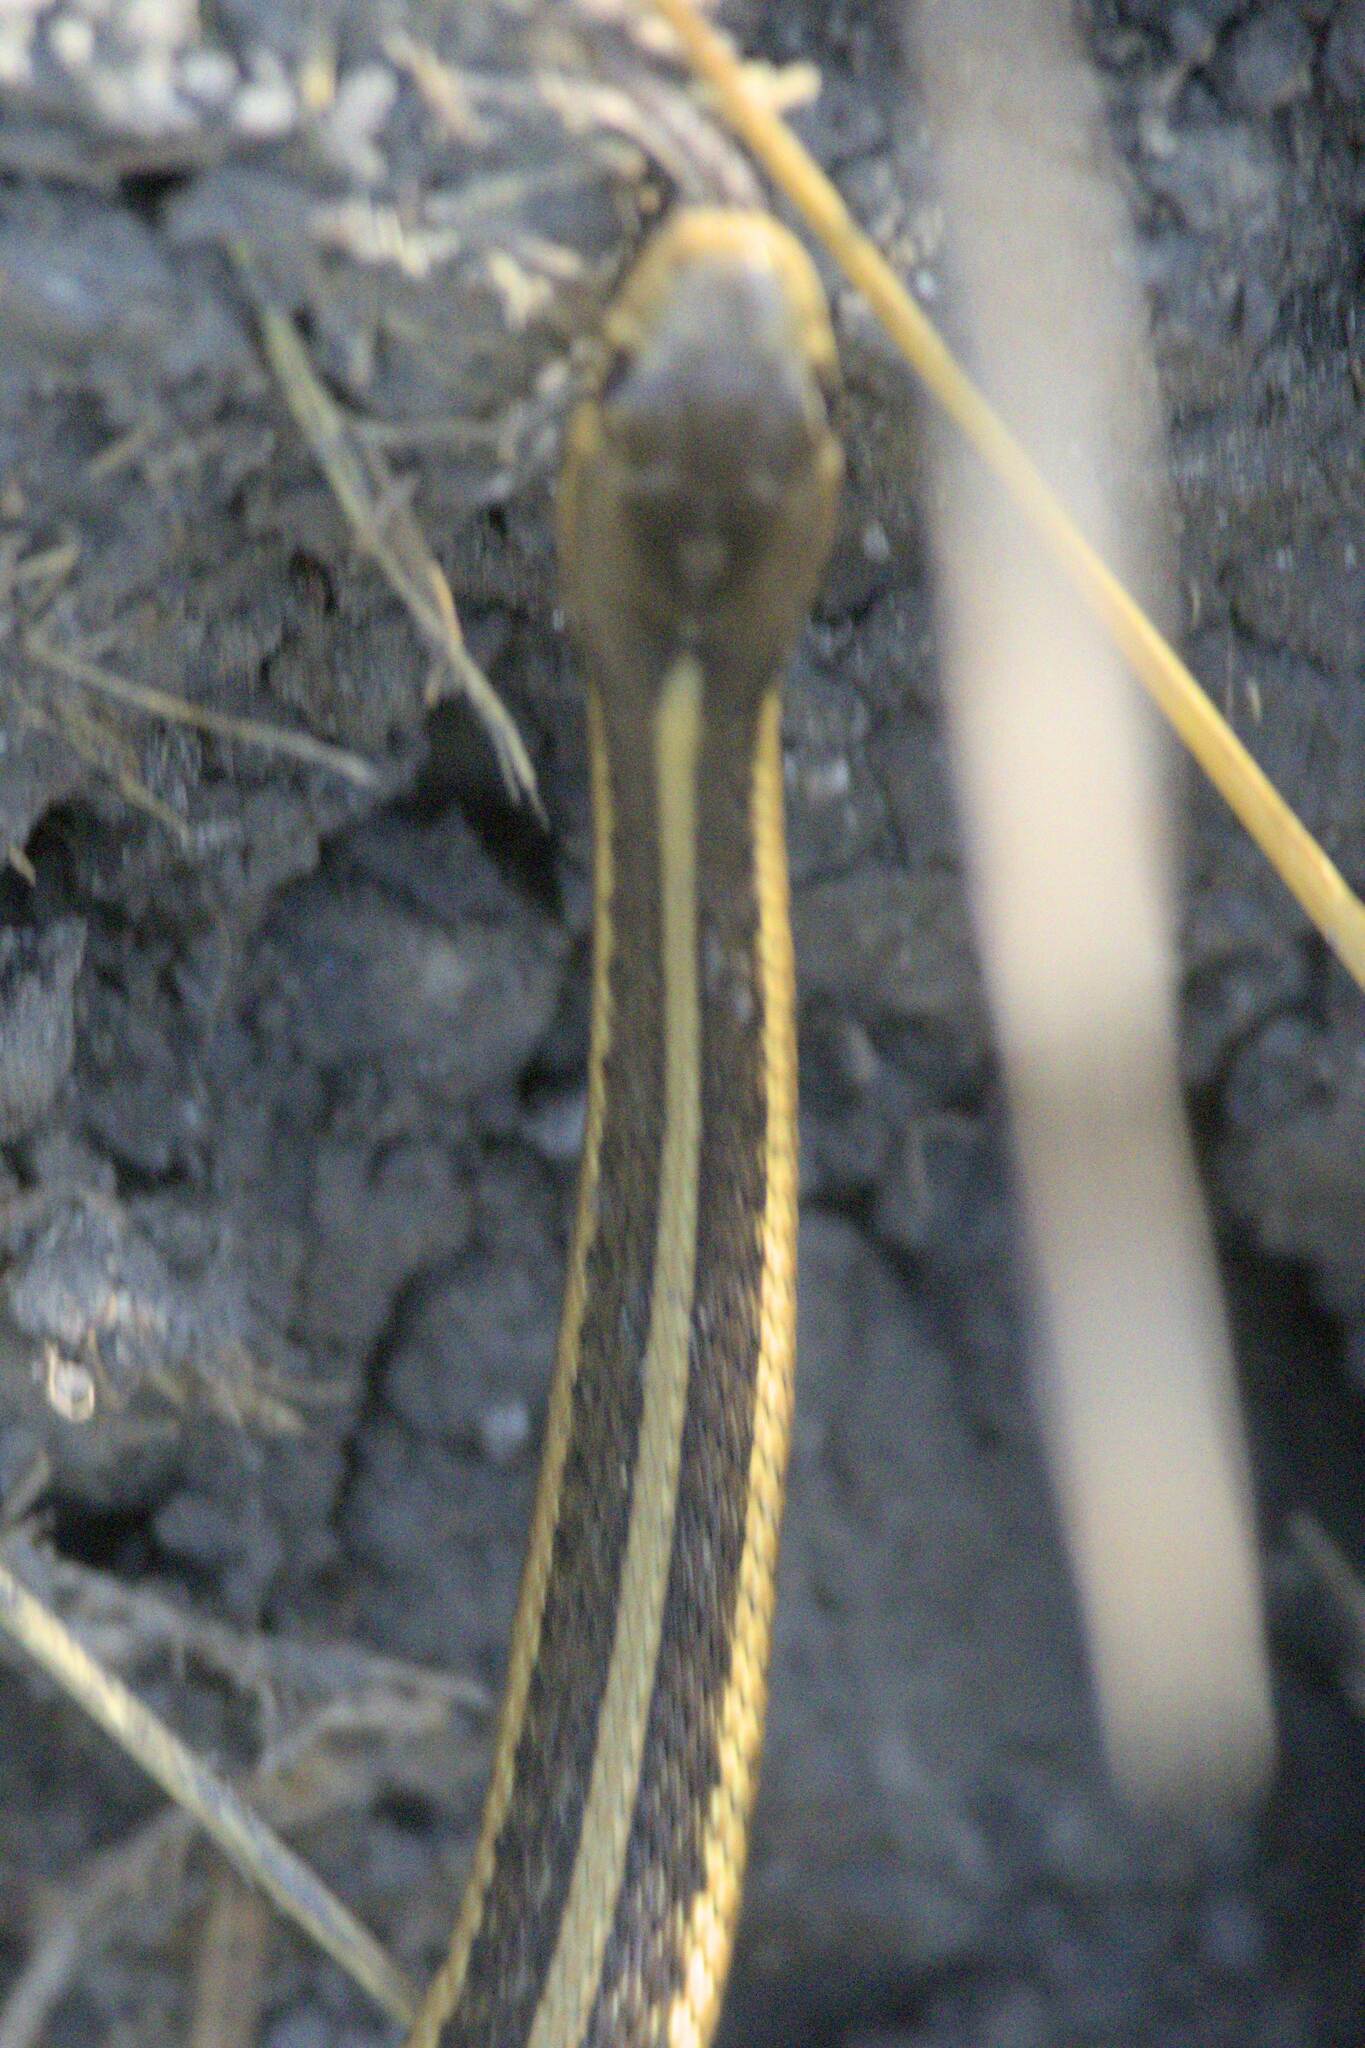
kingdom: Animalia
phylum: Chordata
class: Squamata
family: Colubridae
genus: Thamnophis
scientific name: Thamnophis sirtalis
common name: Common garter snake
